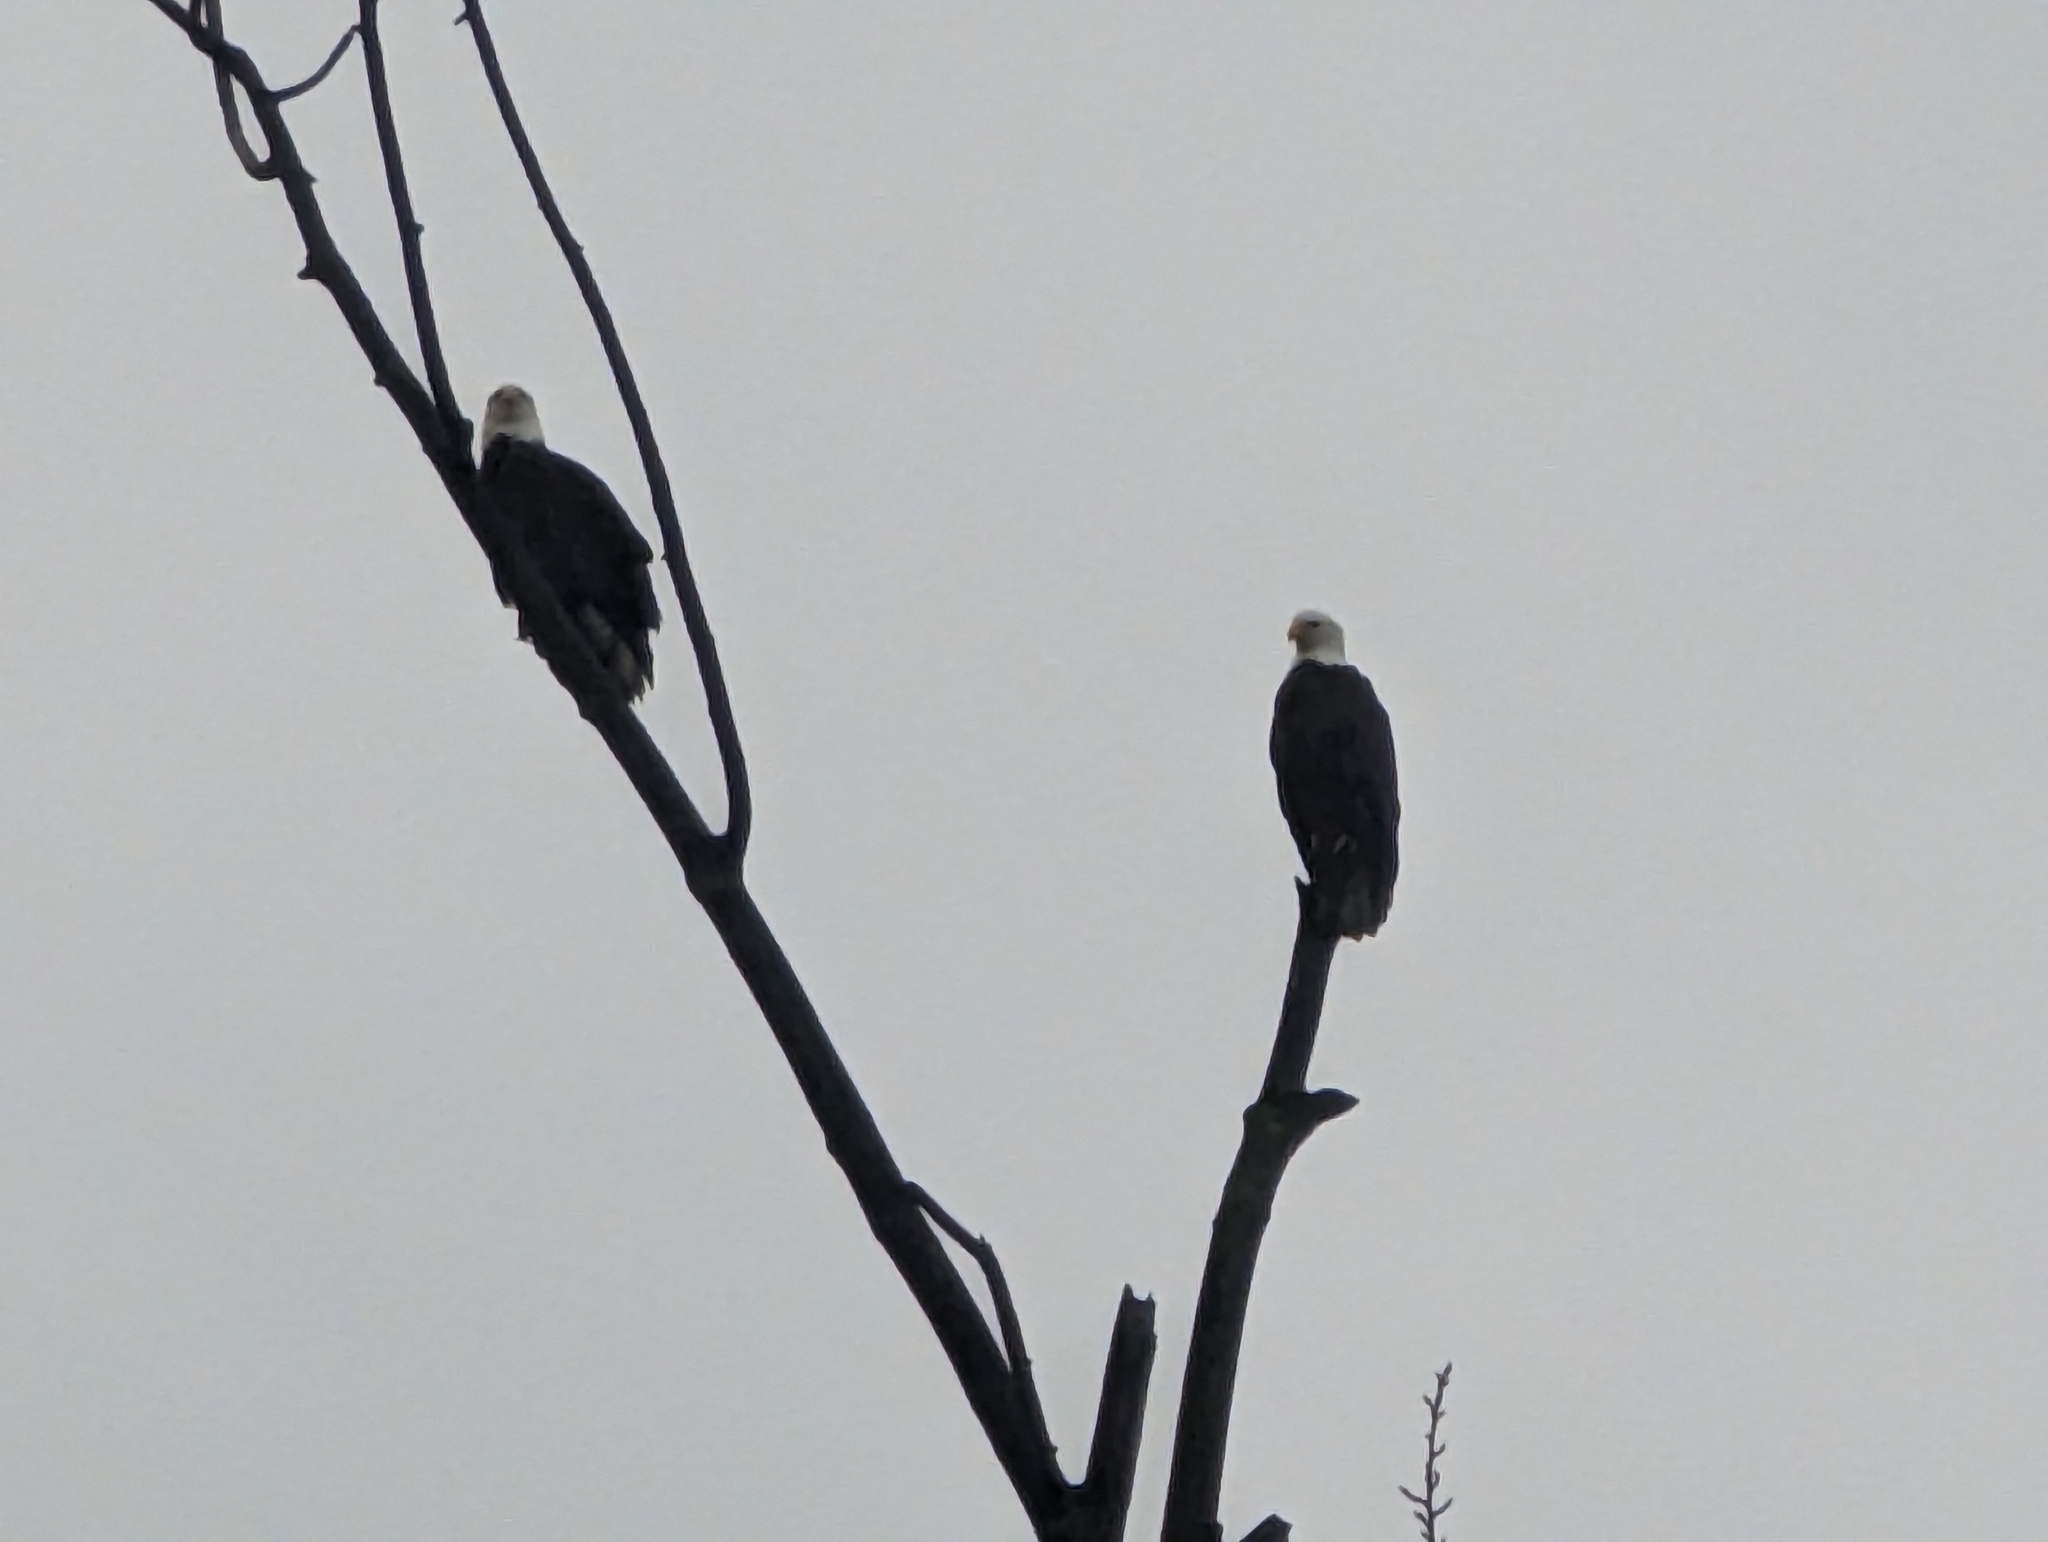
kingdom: Animalia
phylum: Chordata
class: Aves
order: Accipitriformes
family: Accipitridae
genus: Haliaeetus
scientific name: Haliaeetus leucocephalus
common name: Bald eagle
